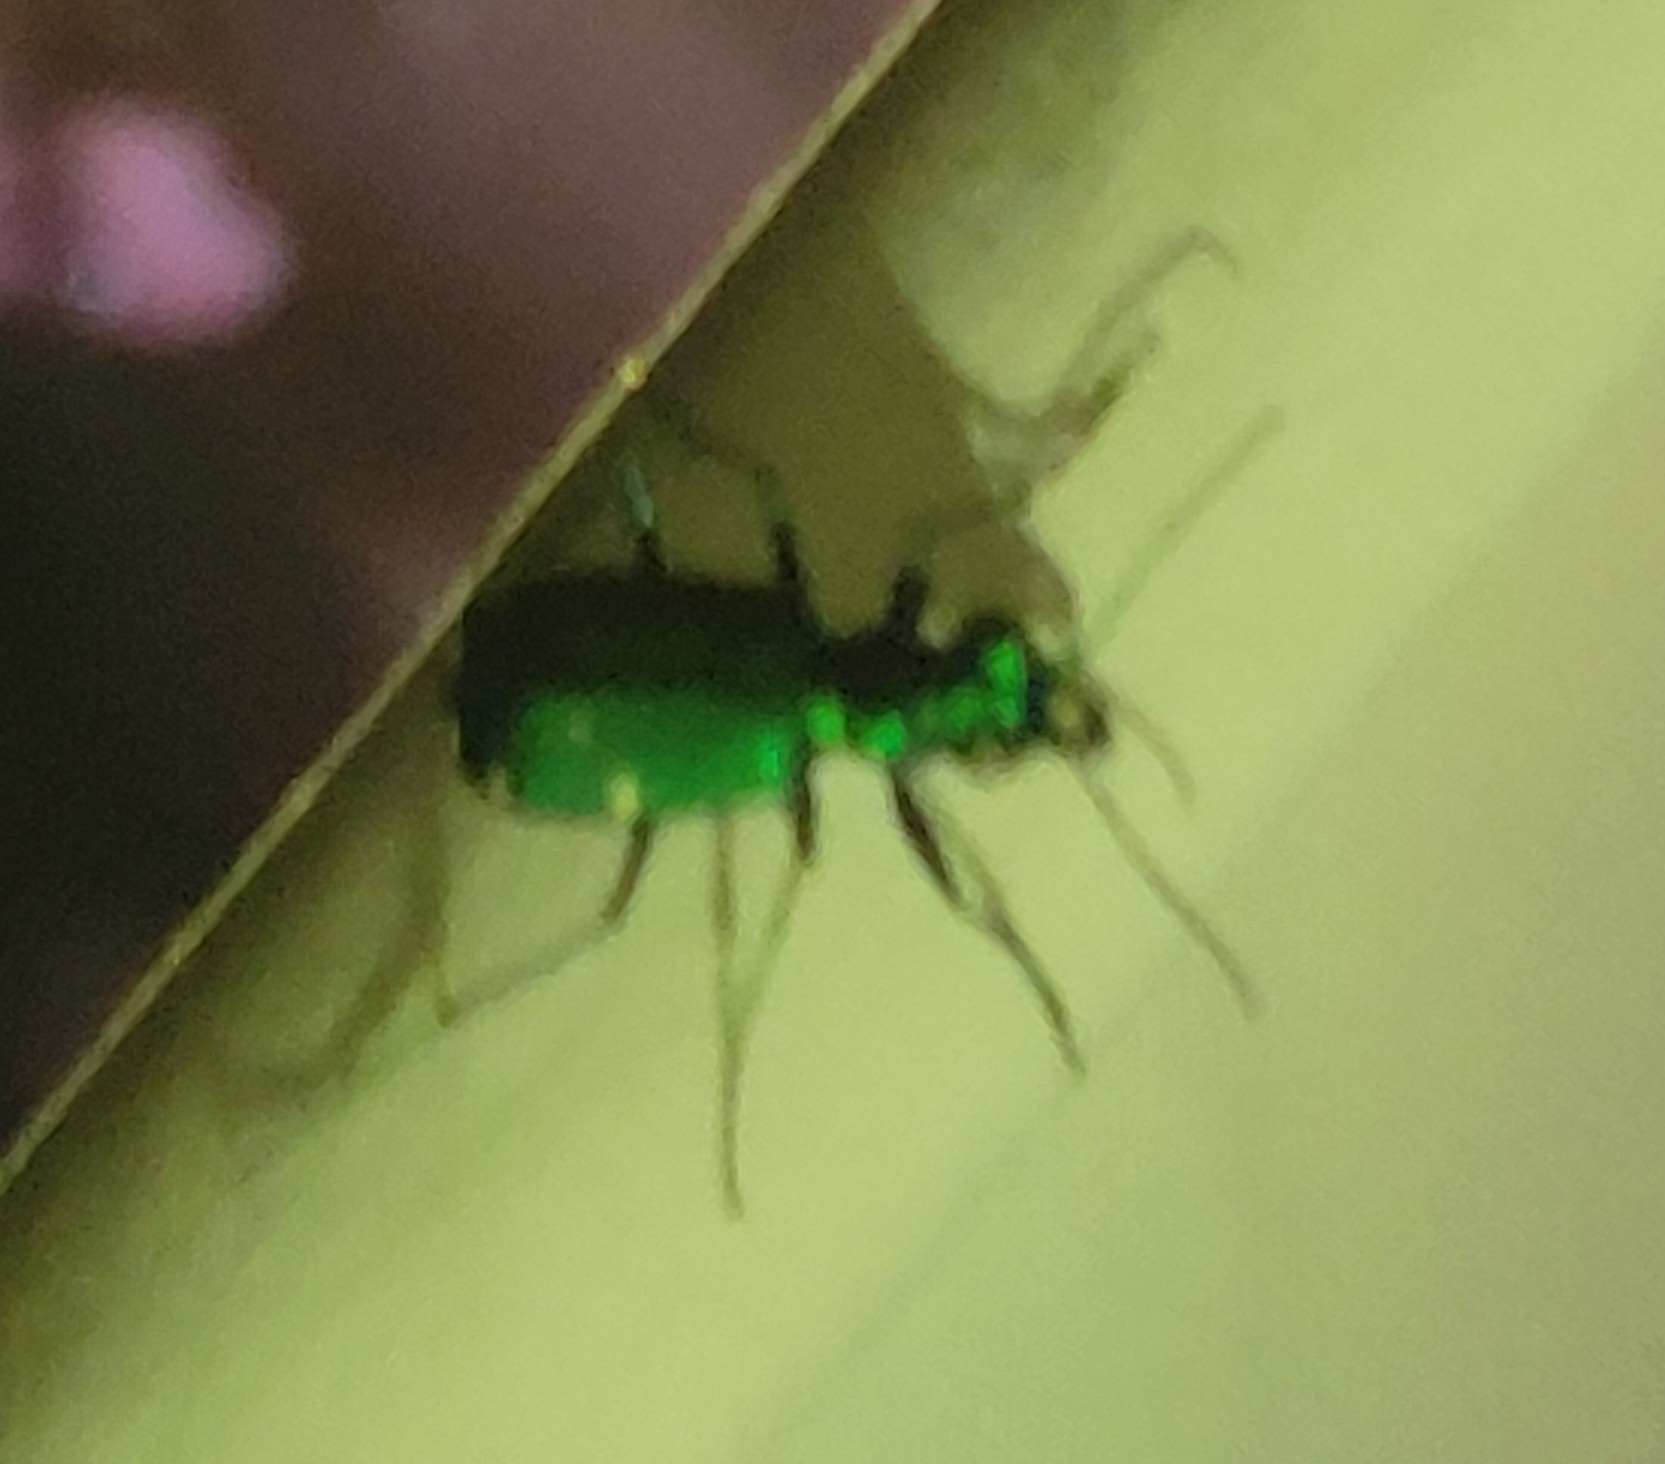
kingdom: Animalia
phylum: Arthropoda
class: Insecta
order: Coleoptera
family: Carabidae
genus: Cicindela
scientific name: Cicindela sexguttata
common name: Six-spotted tiger beetle
